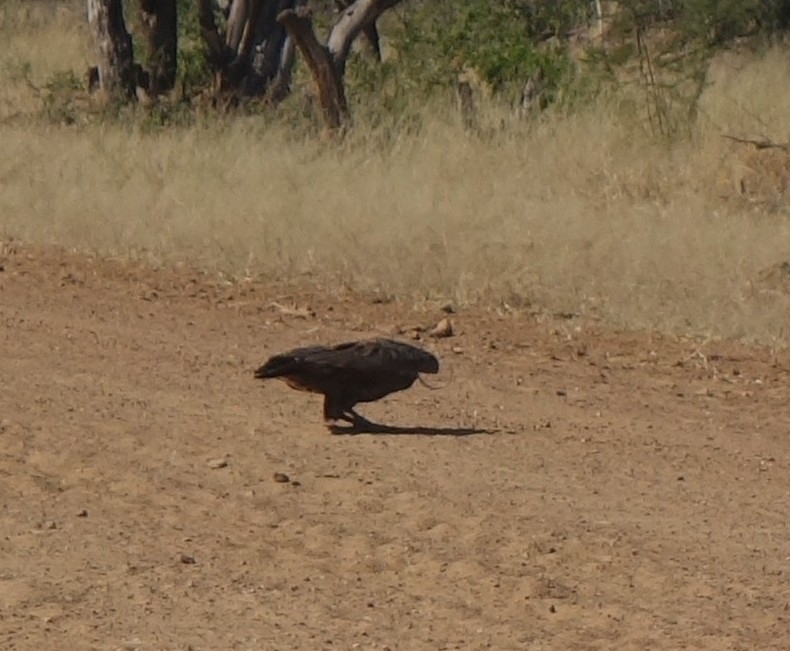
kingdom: Animalia
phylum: Chordata
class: Aves
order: Accipitriformes
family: Accipitridae
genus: Circaetus
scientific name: Circaetus cinereus
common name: Brown snake eagle
